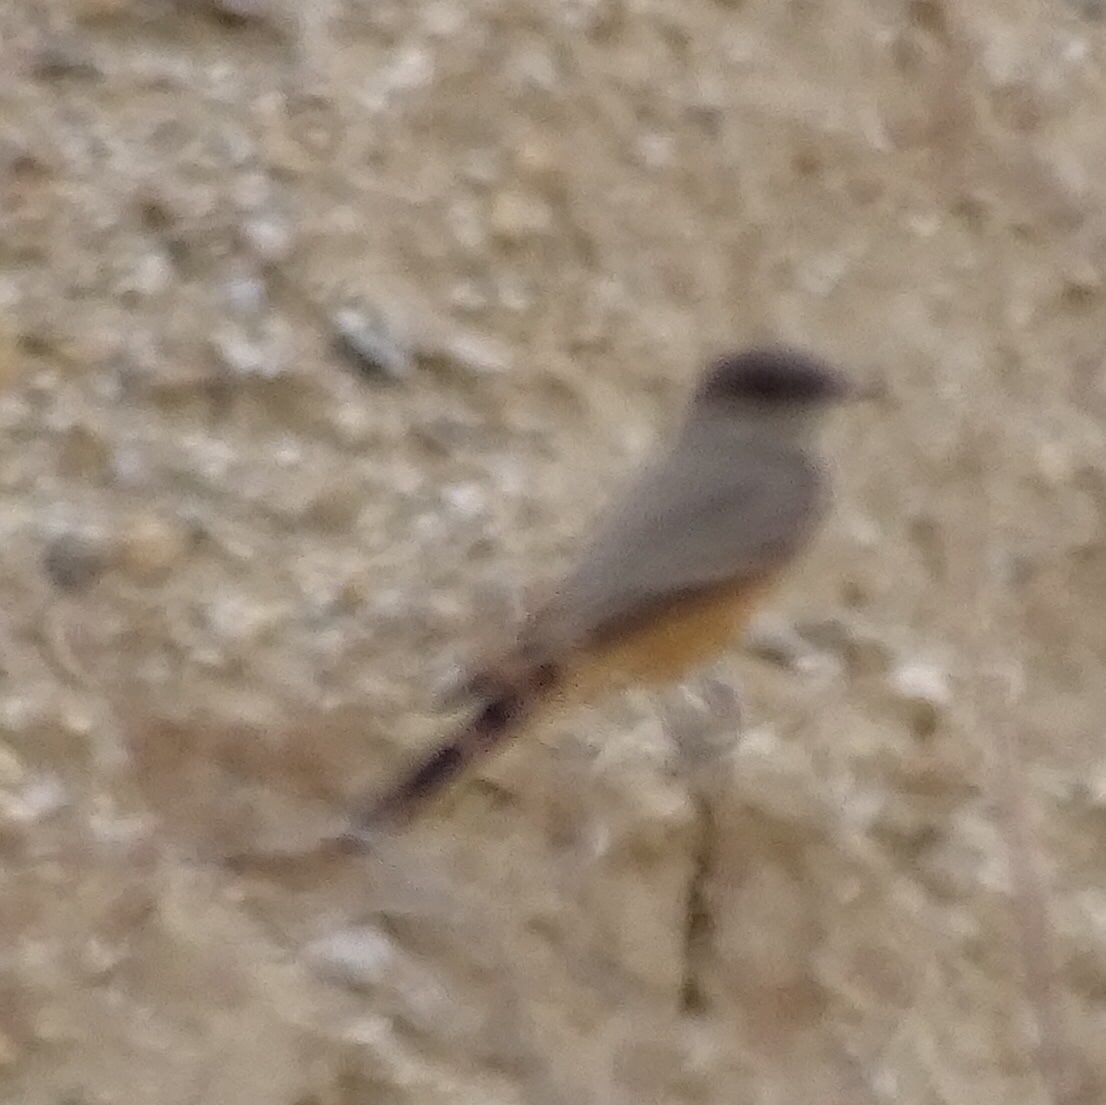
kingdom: Animalia
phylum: Chordata
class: Aves
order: Passeriformes
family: Tyrannidae
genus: Sayornis
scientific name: Sayornis saya
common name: Say's phoebe
